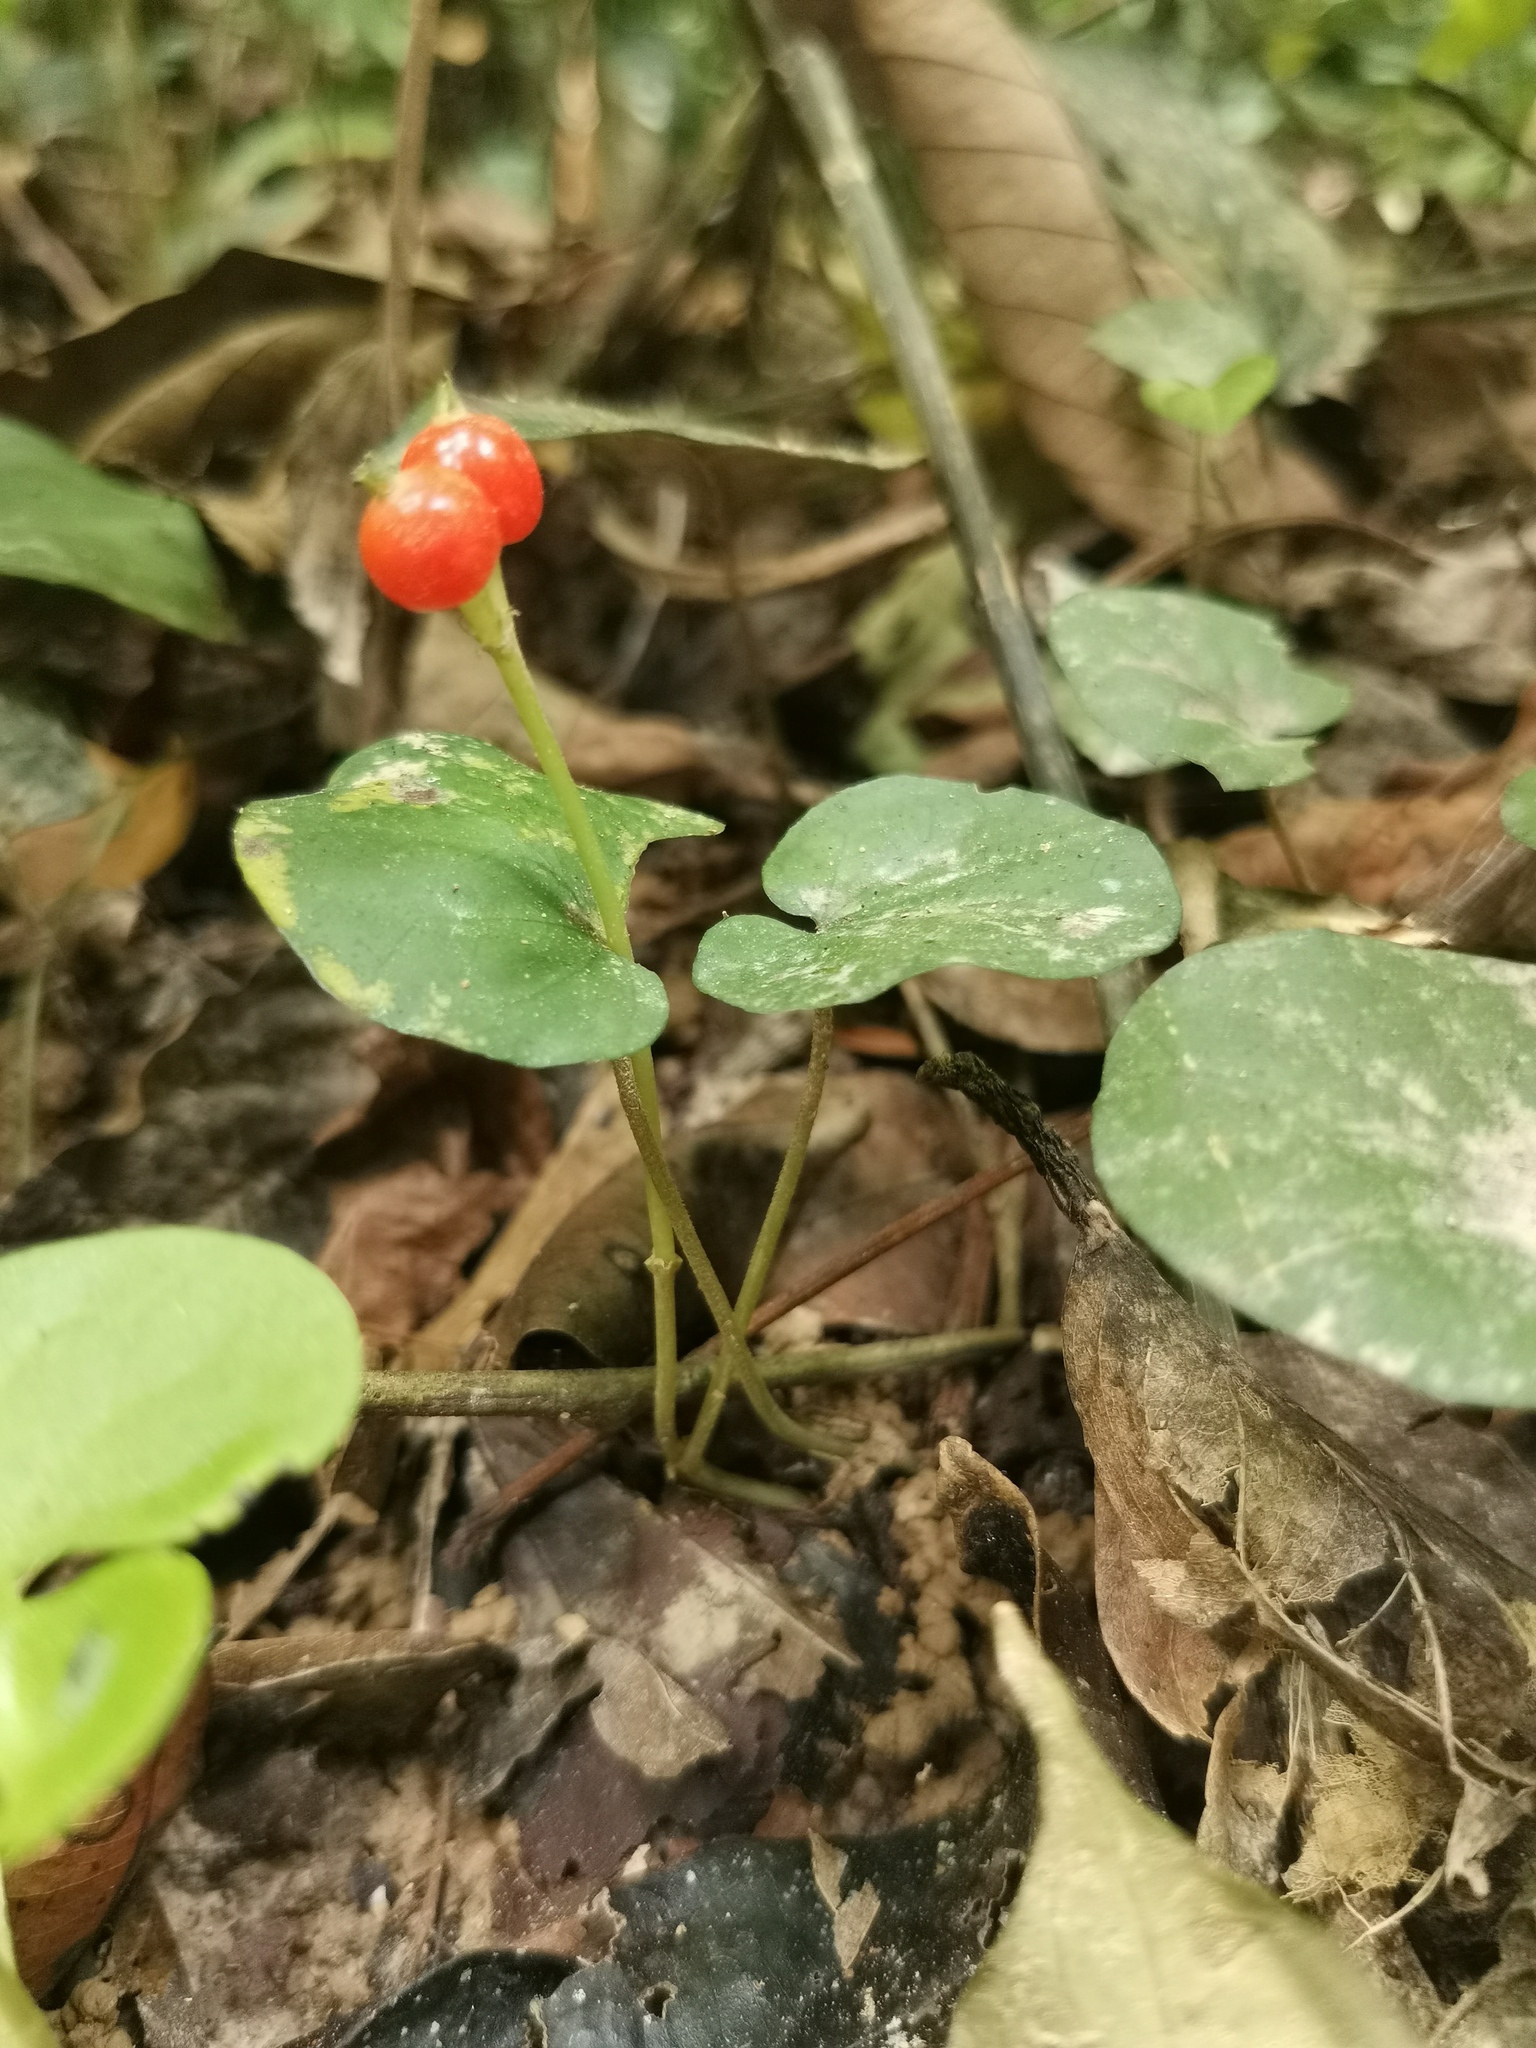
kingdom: Plantae
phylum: Tracheophyta
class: Magnoliopsida
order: Gentianales
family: Rubiaceae
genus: Geophila
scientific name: Geophila herbacea
